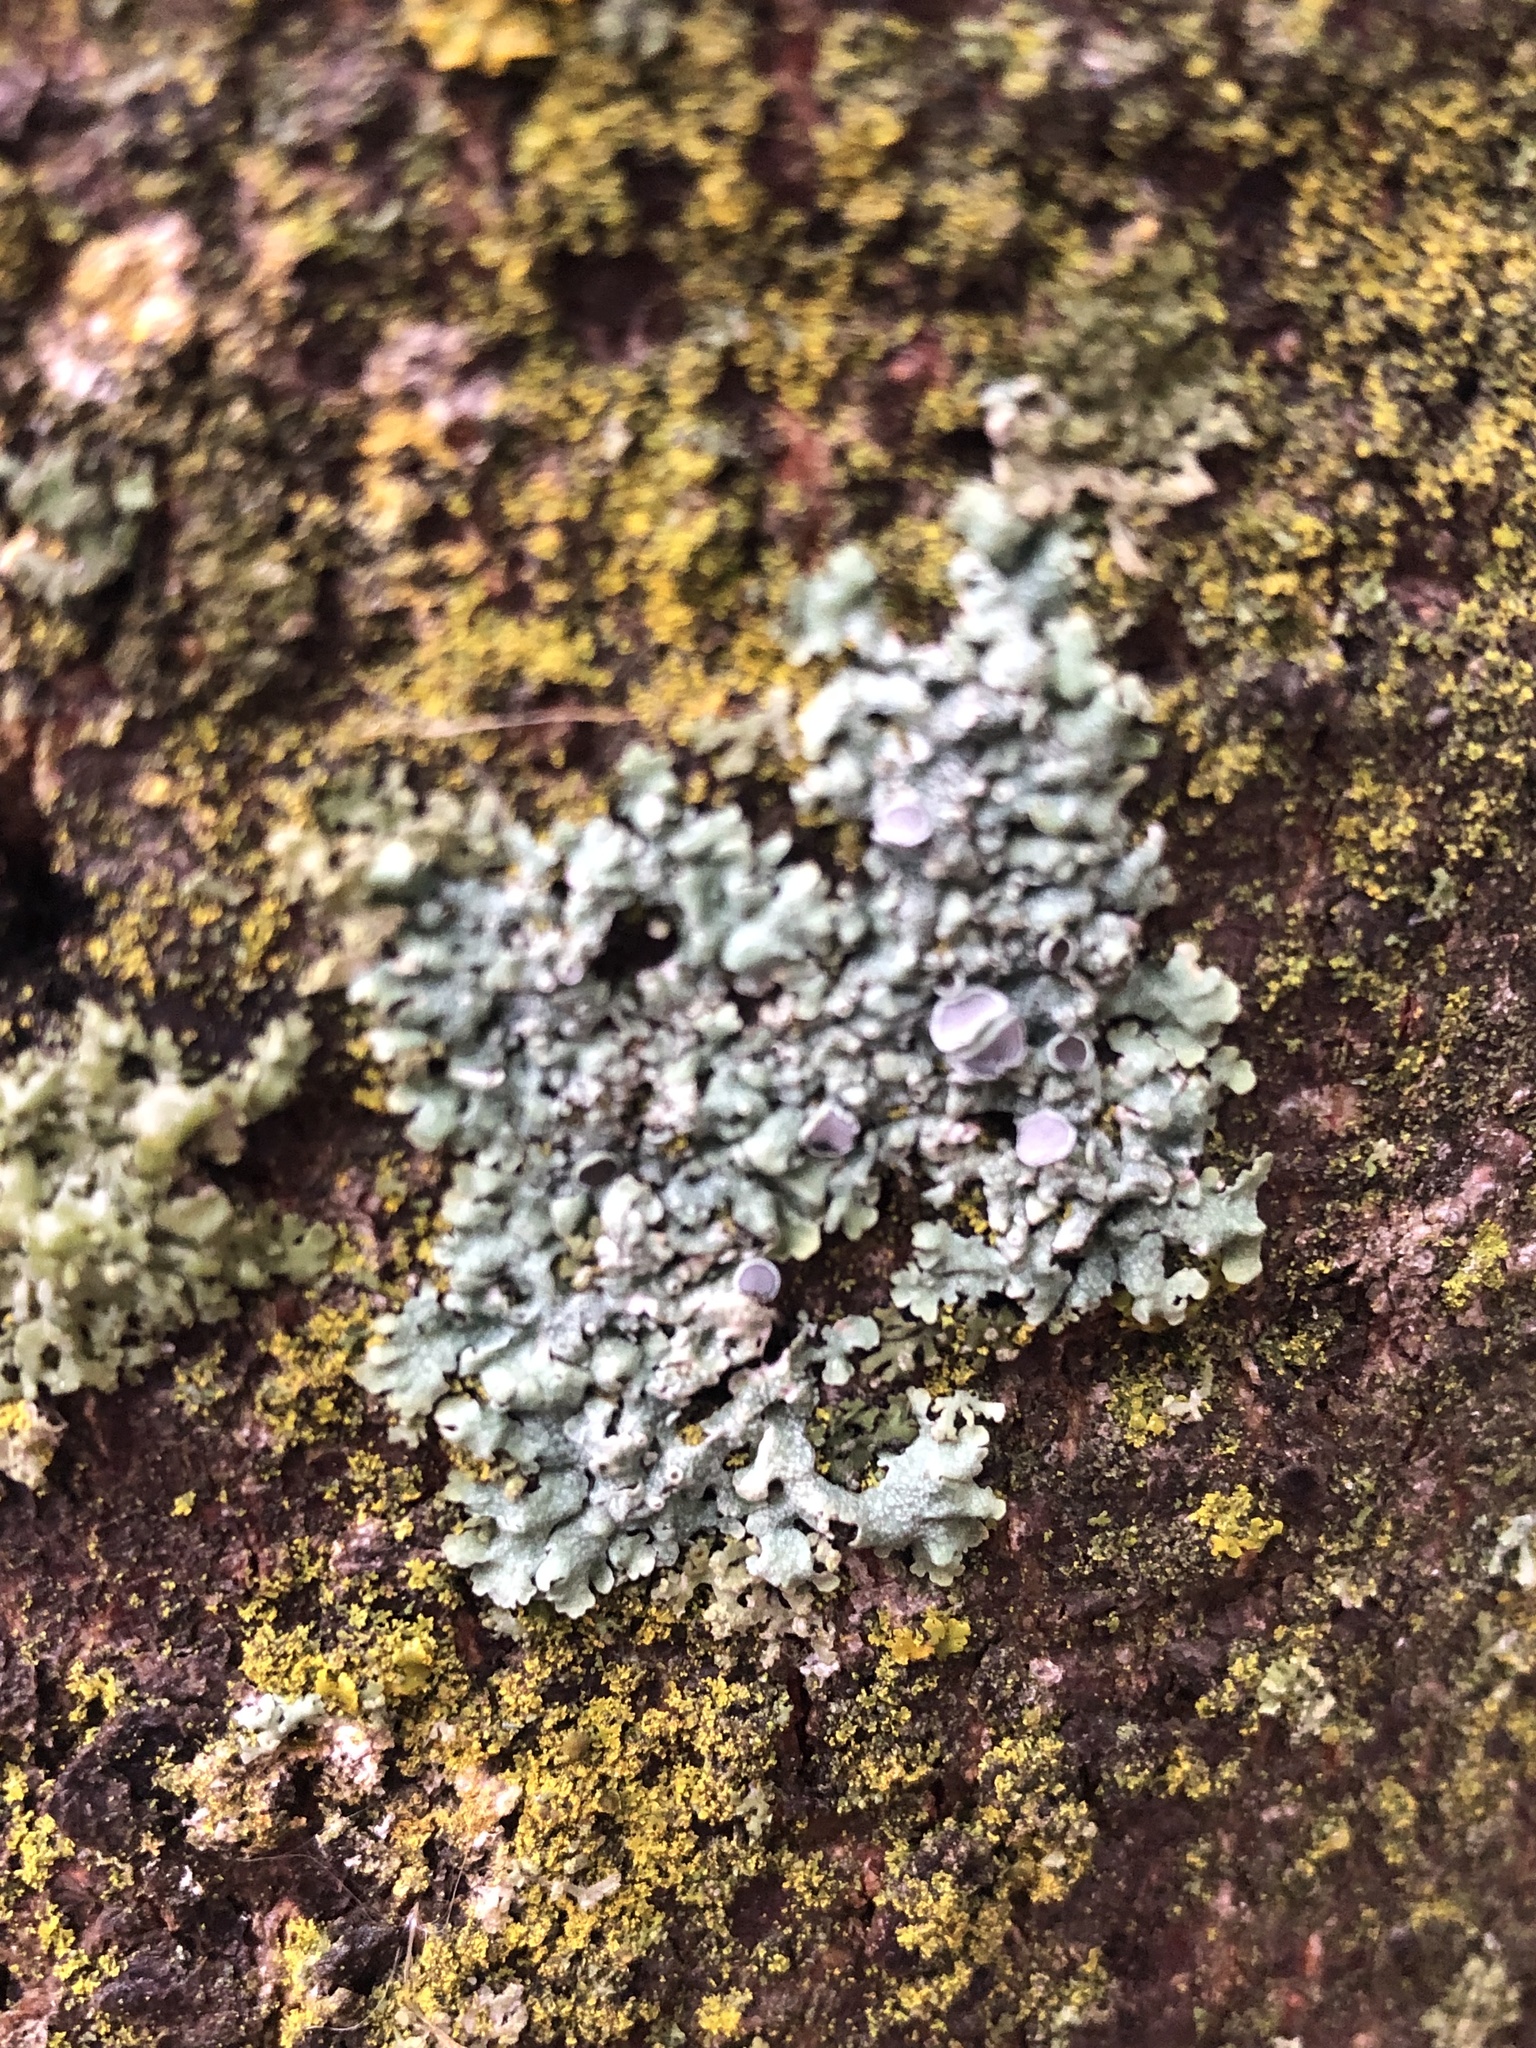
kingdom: Fungi
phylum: Ascomycota
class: Lecanoromycetes
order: Caliciales
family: Physciaceae
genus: Physcia
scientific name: Physcia aipolia
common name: Hoary rosette lichen
